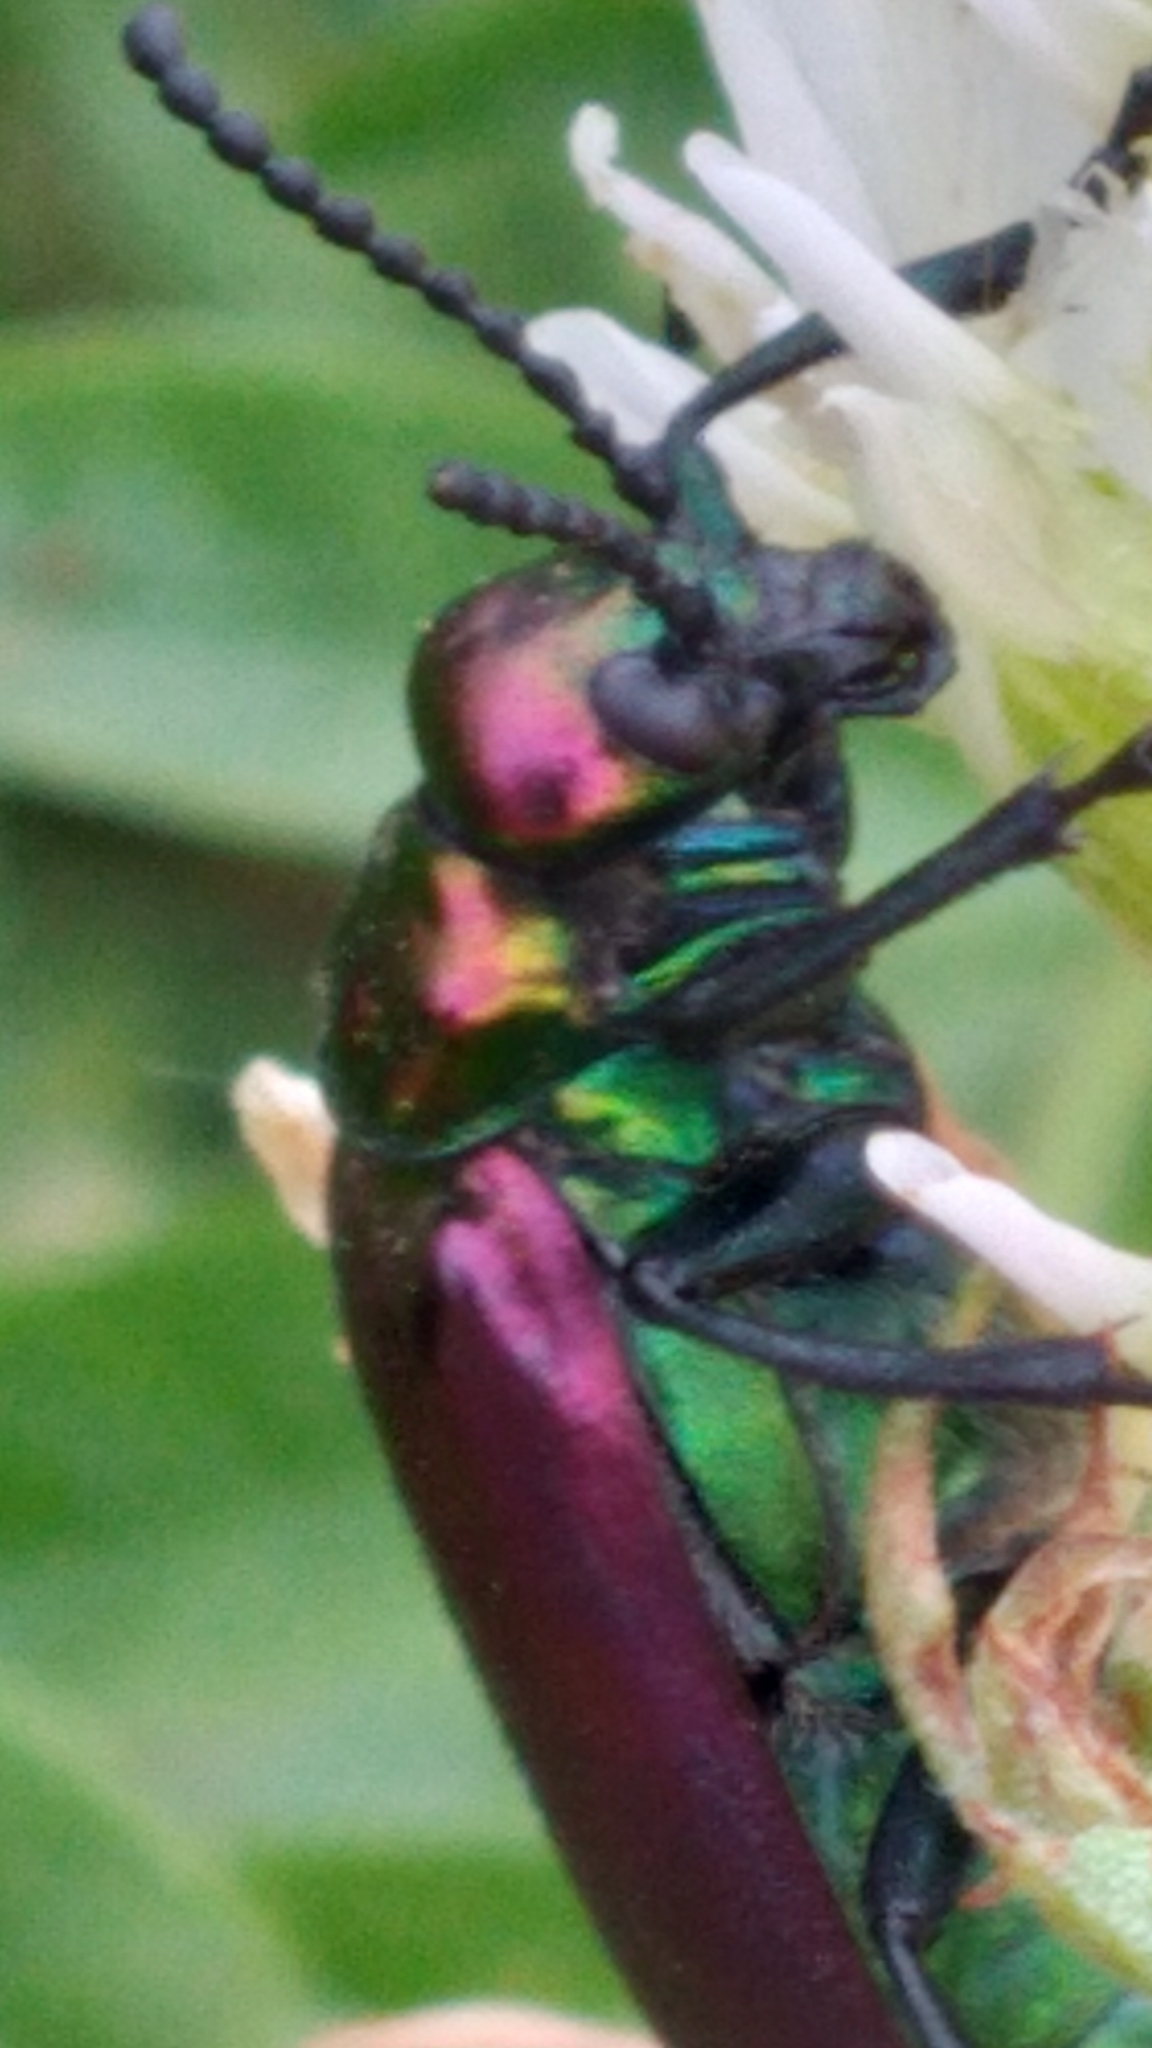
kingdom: Animalia
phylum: Arthropoda
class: Insecta
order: Coleoptera
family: Meloidae
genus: Lytta
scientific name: Lytta nuttallii
